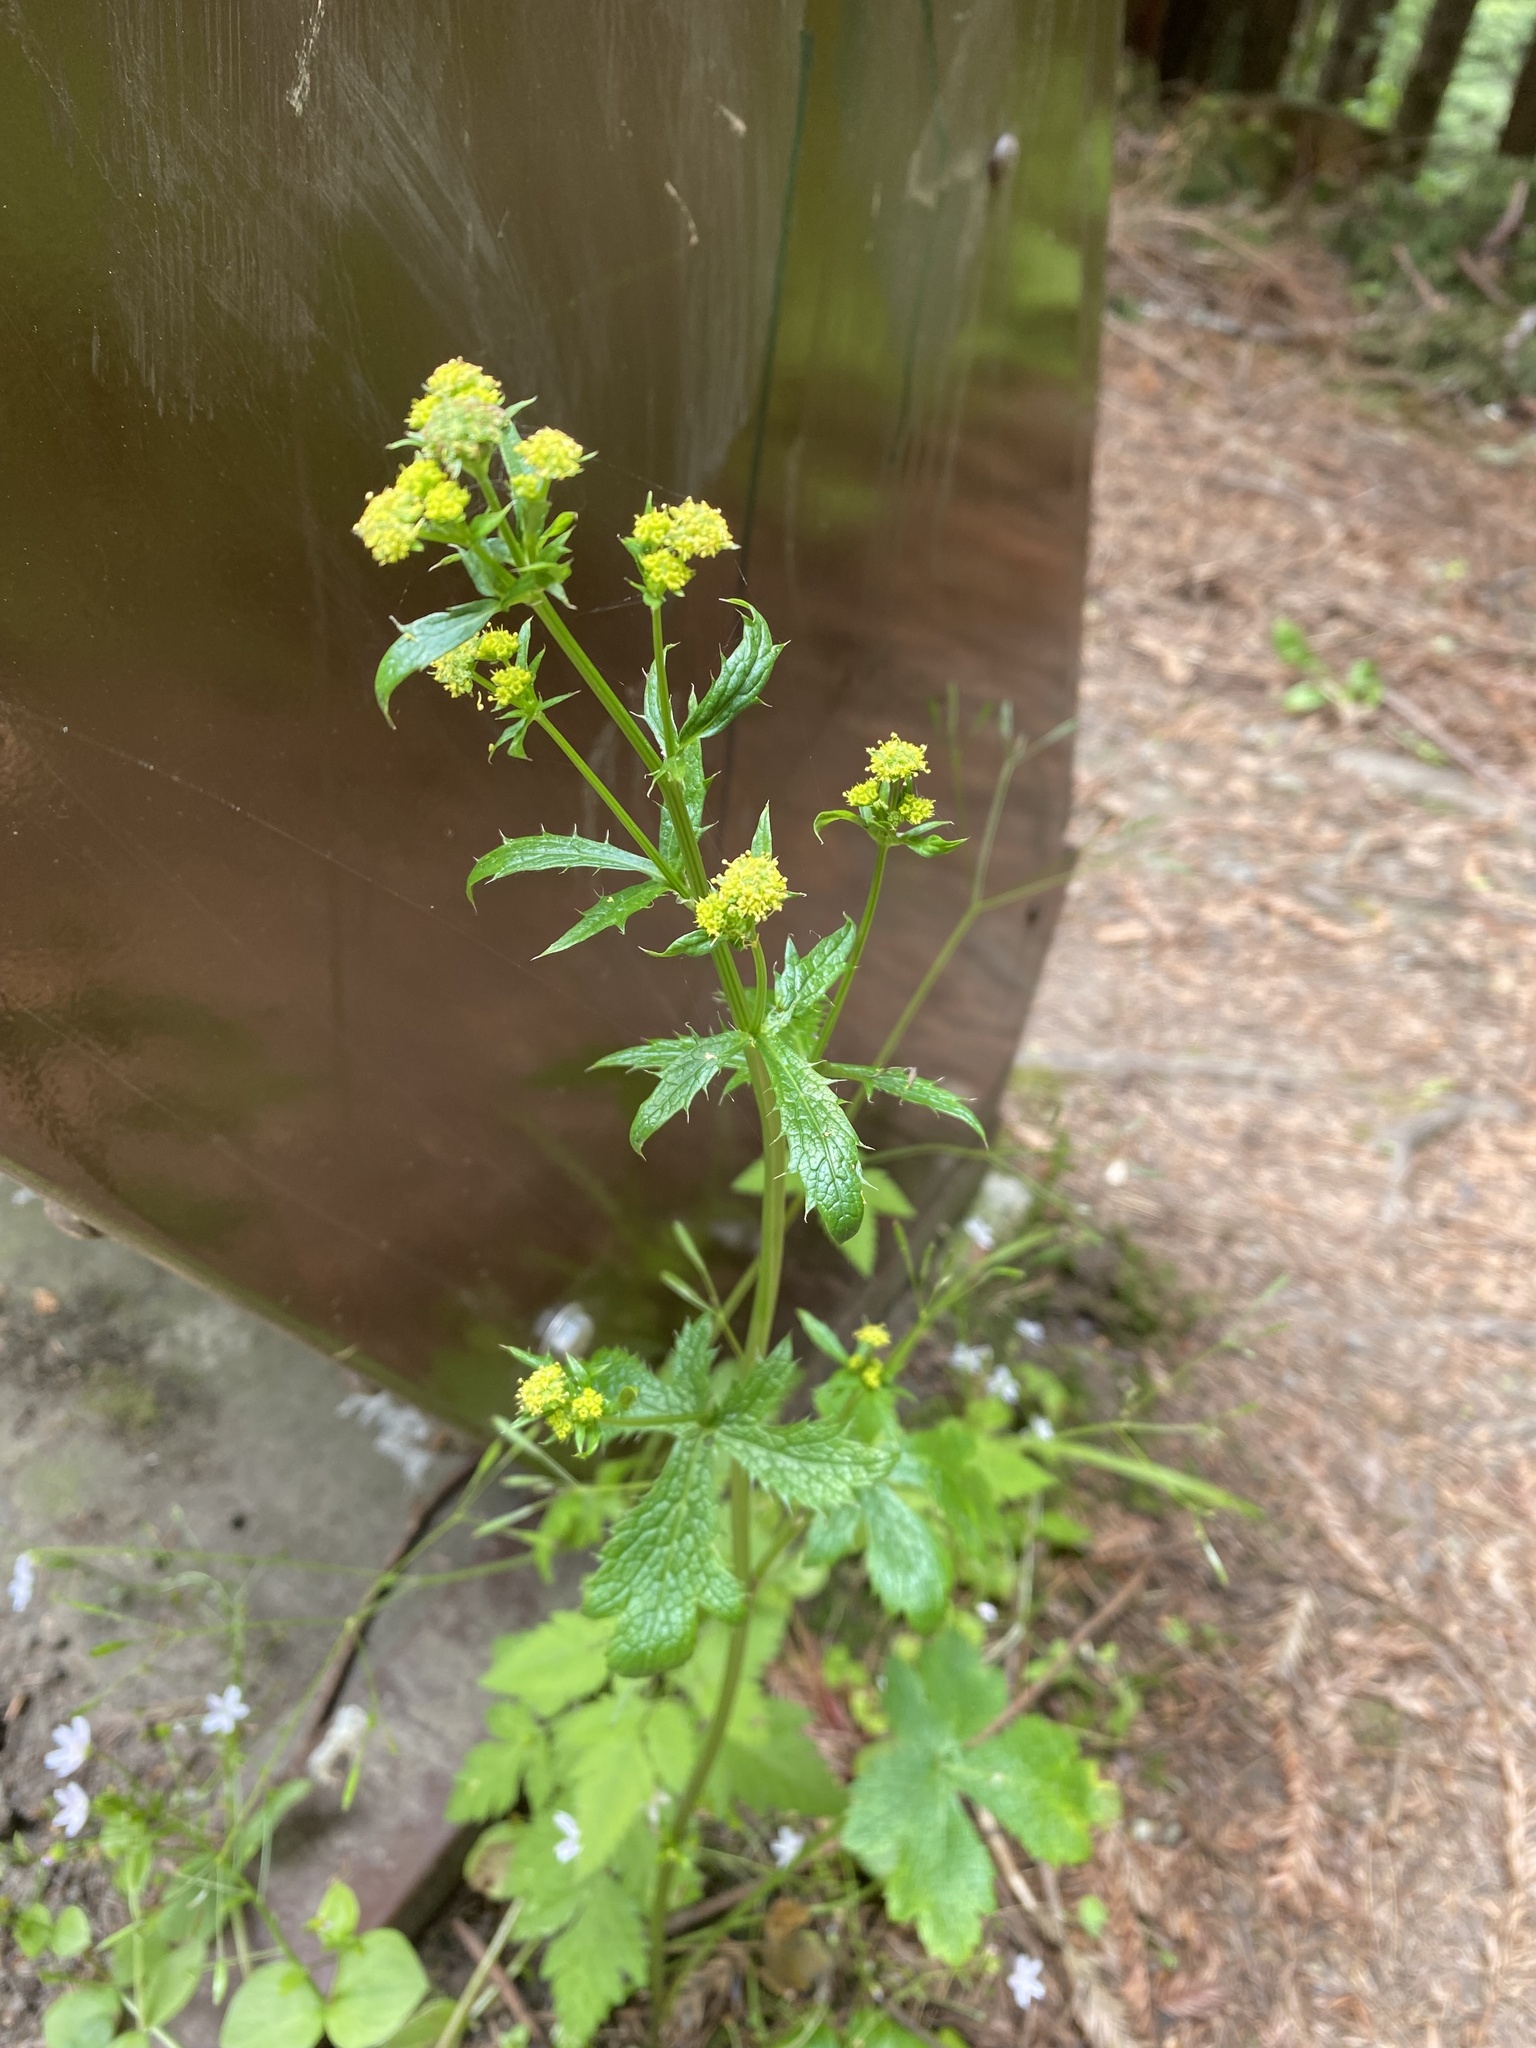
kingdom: Plantae
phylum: Tracheophyta
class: Magnoliopsida
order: Apiales
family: Apiaceae
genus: Sanicula
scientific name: Sanicula crassicaulis
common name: Western snakeroot
